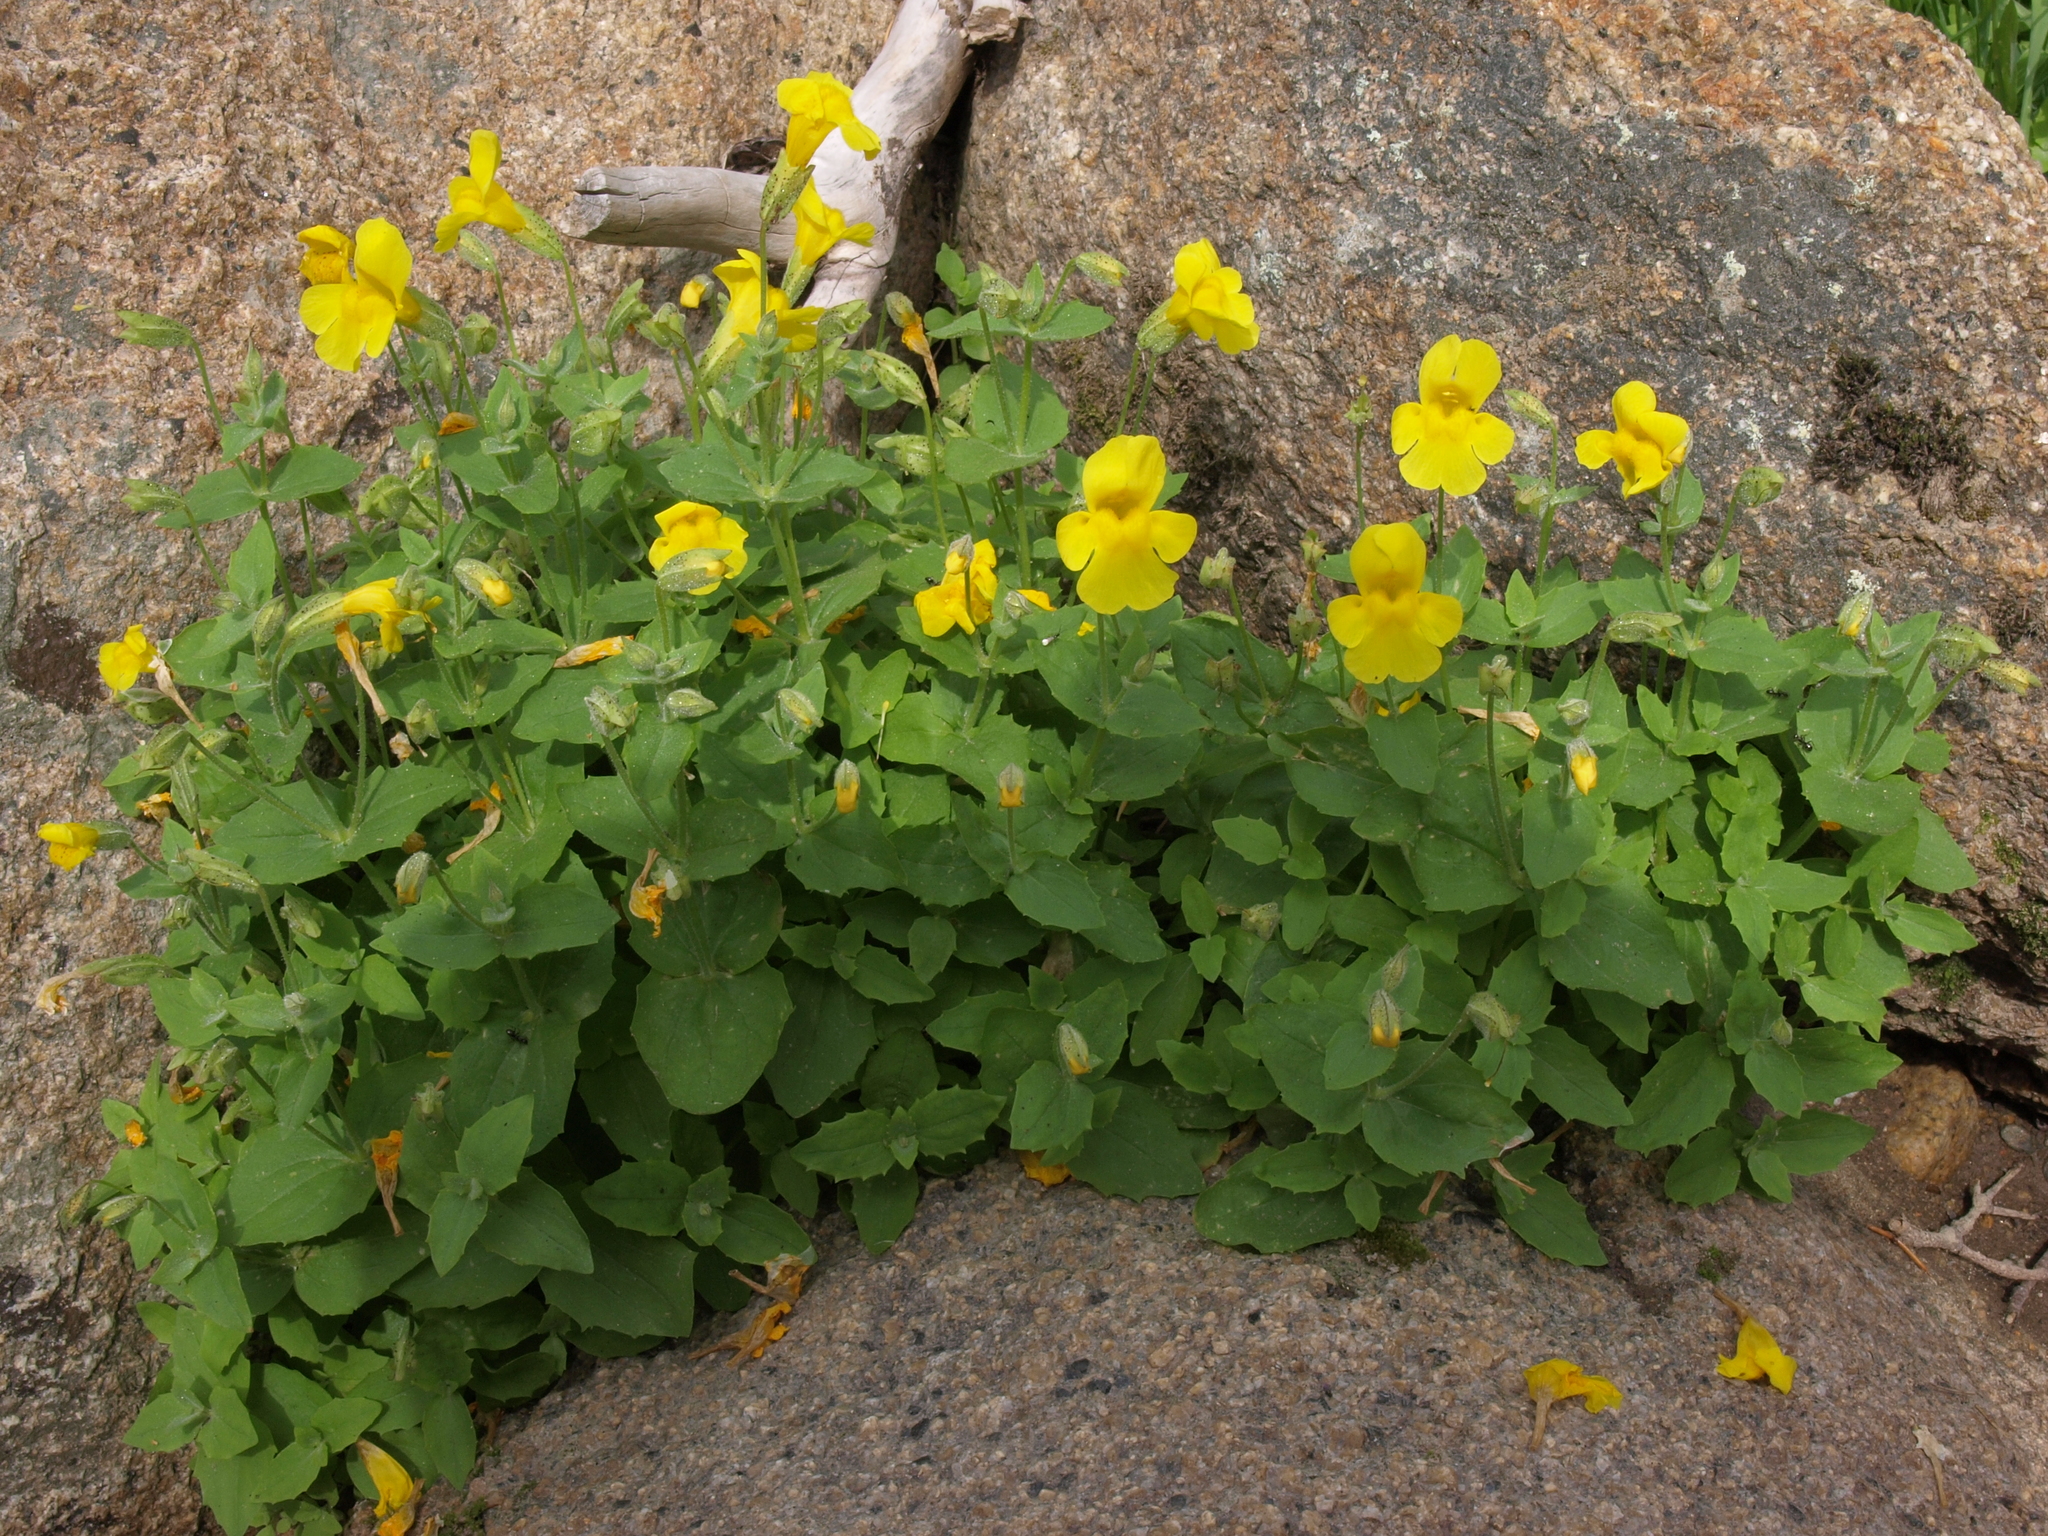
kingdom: Plantae
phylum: Tracheophyta
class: Magnoliopsida
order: Lamiales
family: Phrymaceae
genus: Erythranthe
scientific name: Erythranthe tilingii
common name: Subalpine monkey-flower
